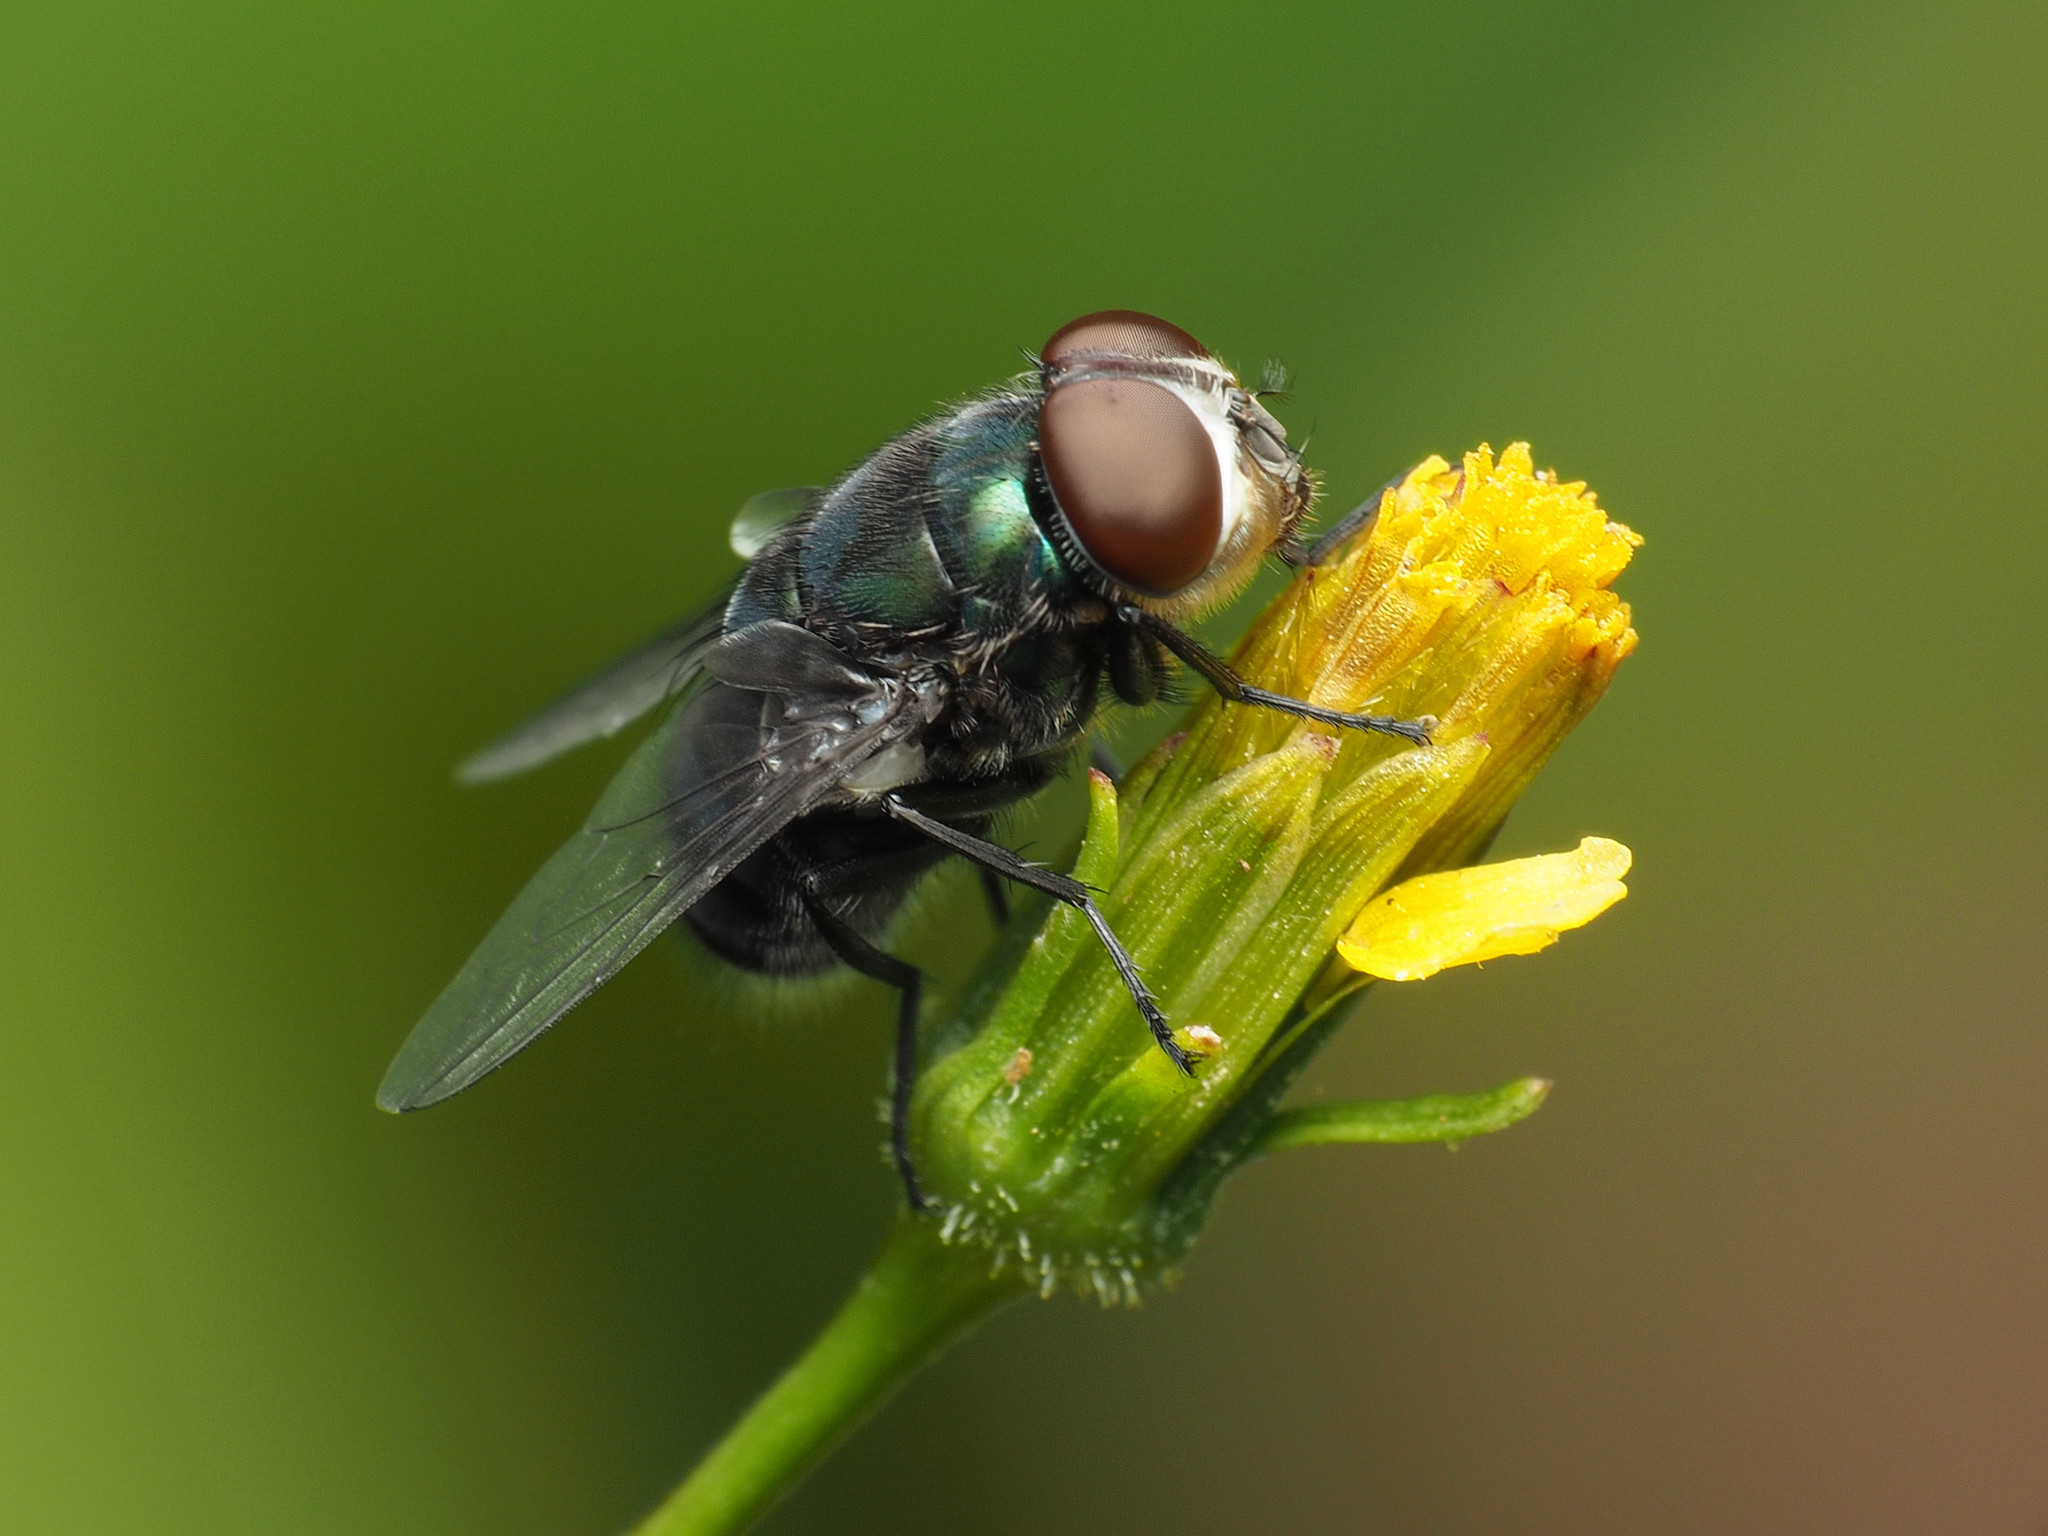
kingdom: Animalia
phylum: Arthropoda
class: Insecta
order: Diptera
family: Calliphoridae
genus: Chrysomya
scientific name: Chrysomya rufifacies
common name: Blow fly
